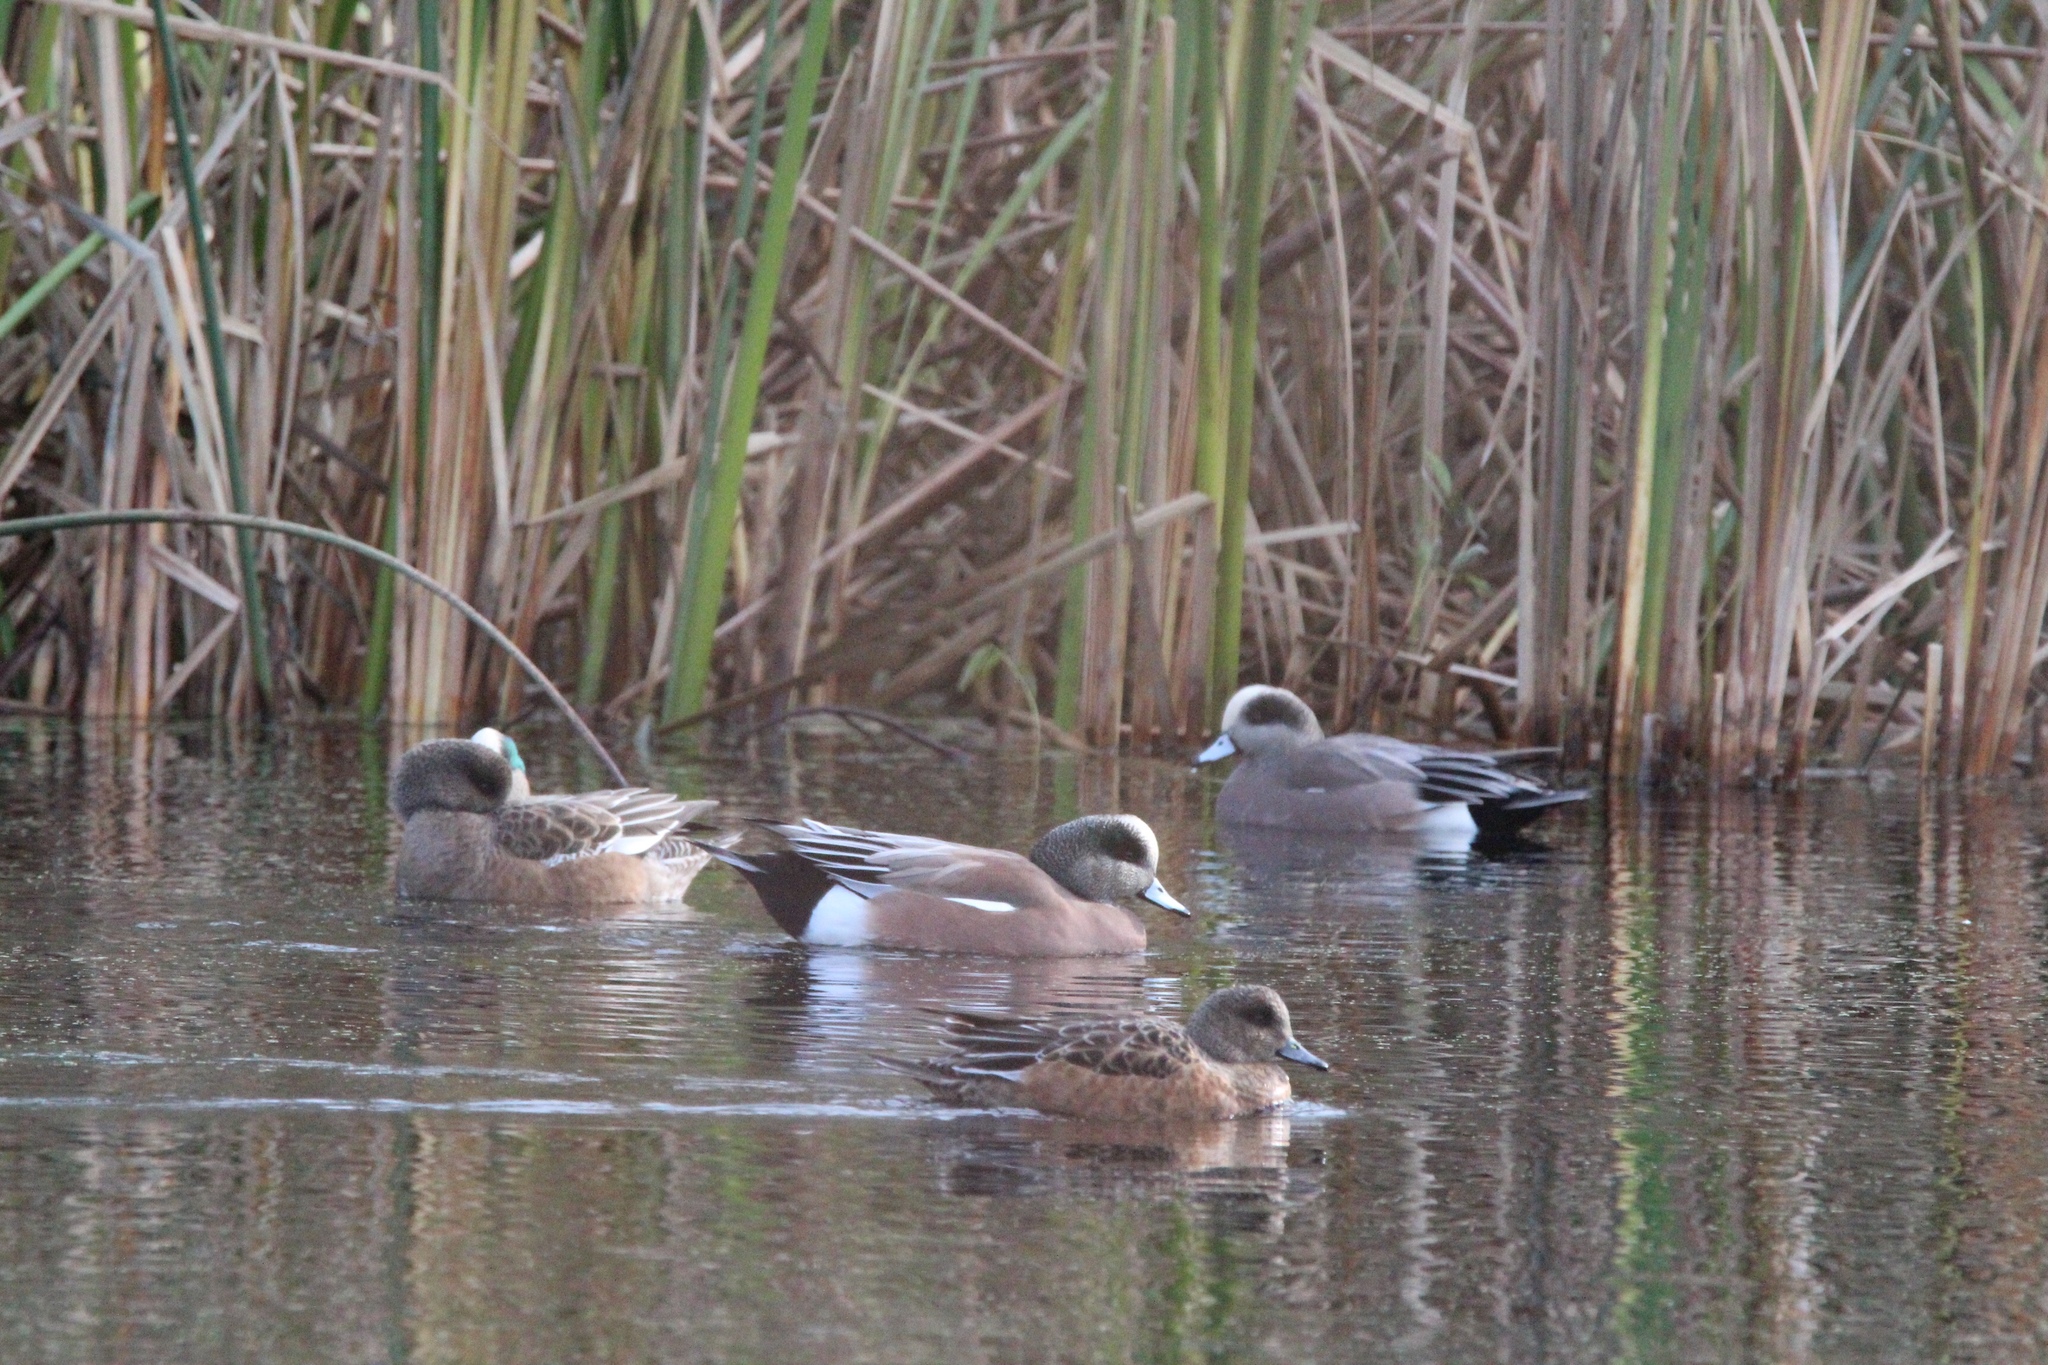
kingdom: Animalia
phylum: Chordata
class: Aves
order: Anseriformes
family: Anatidae
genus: Mareca
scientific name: Mareca americana
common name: American wigeon
